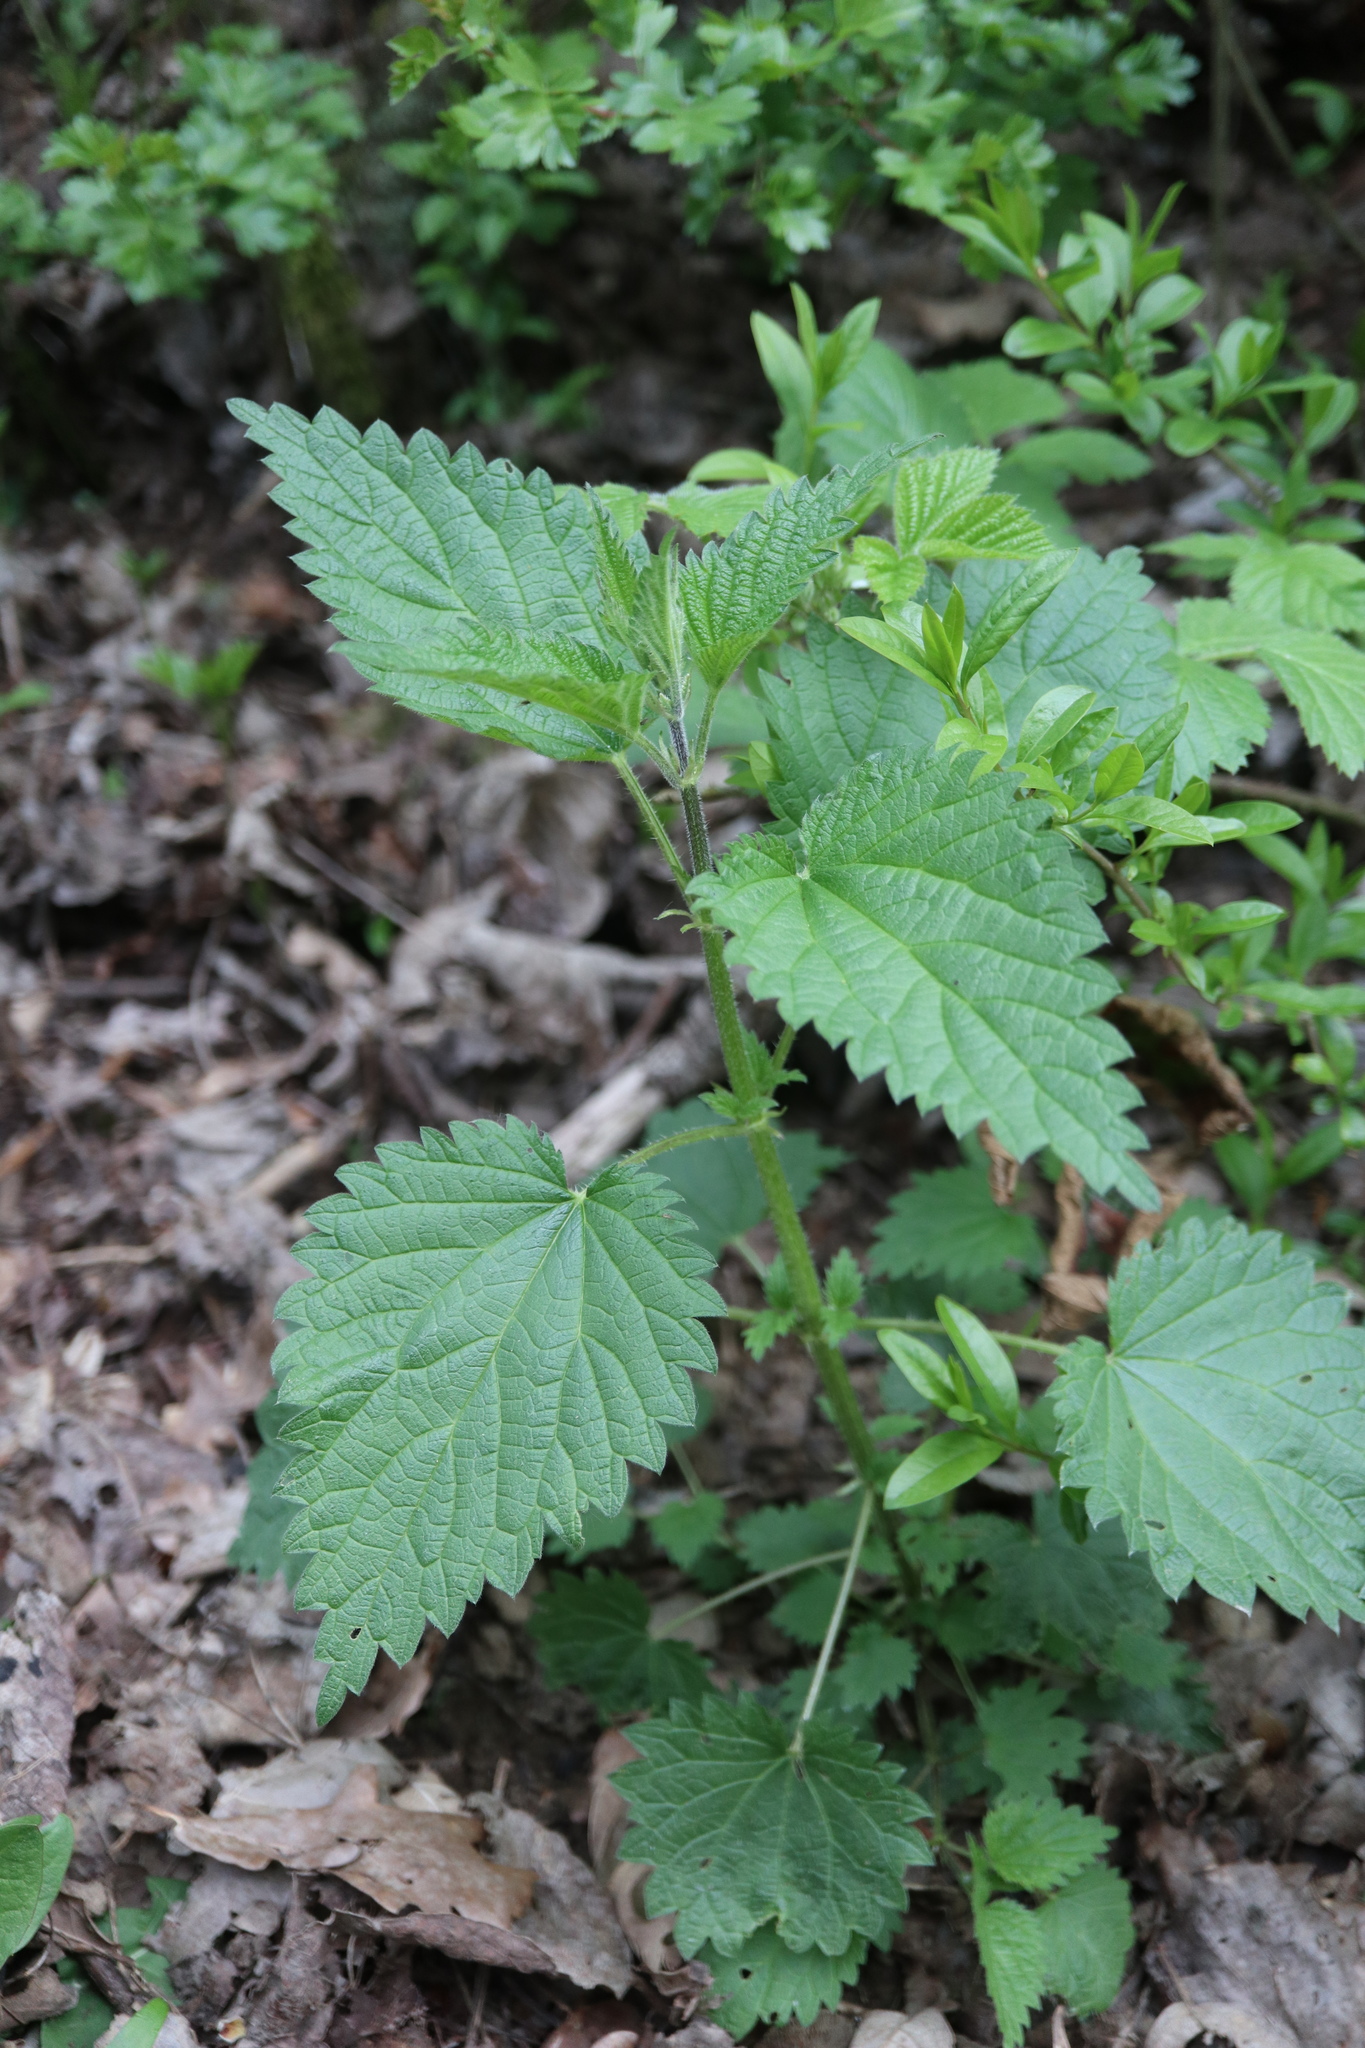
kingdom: Plantae
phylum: Tracheophyta
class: Magnoliopsida
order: Rosales
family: Urticaceae
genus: Urtica
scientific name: Urtica dioica
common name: Common nettle
